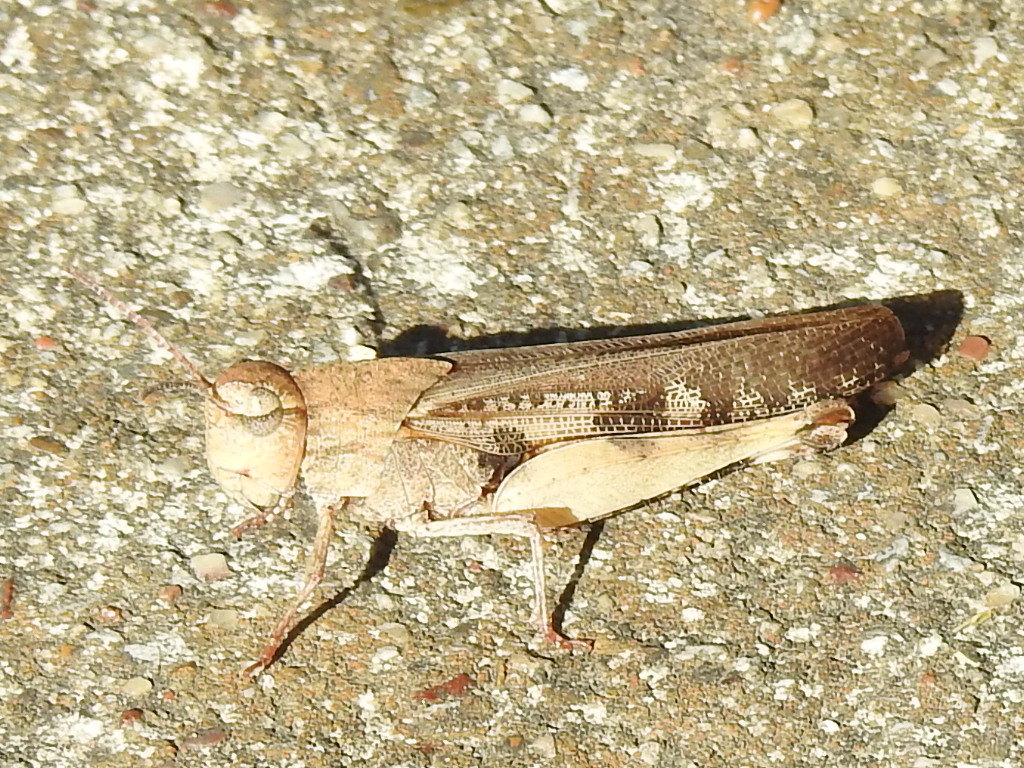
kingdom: Animalia
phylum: Arthropoda
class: Insecta
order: Orthoptera
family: Acrididae
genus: Chortophaga
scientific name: Chortophaga viridifasciata
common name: Green-striped grasshopper
